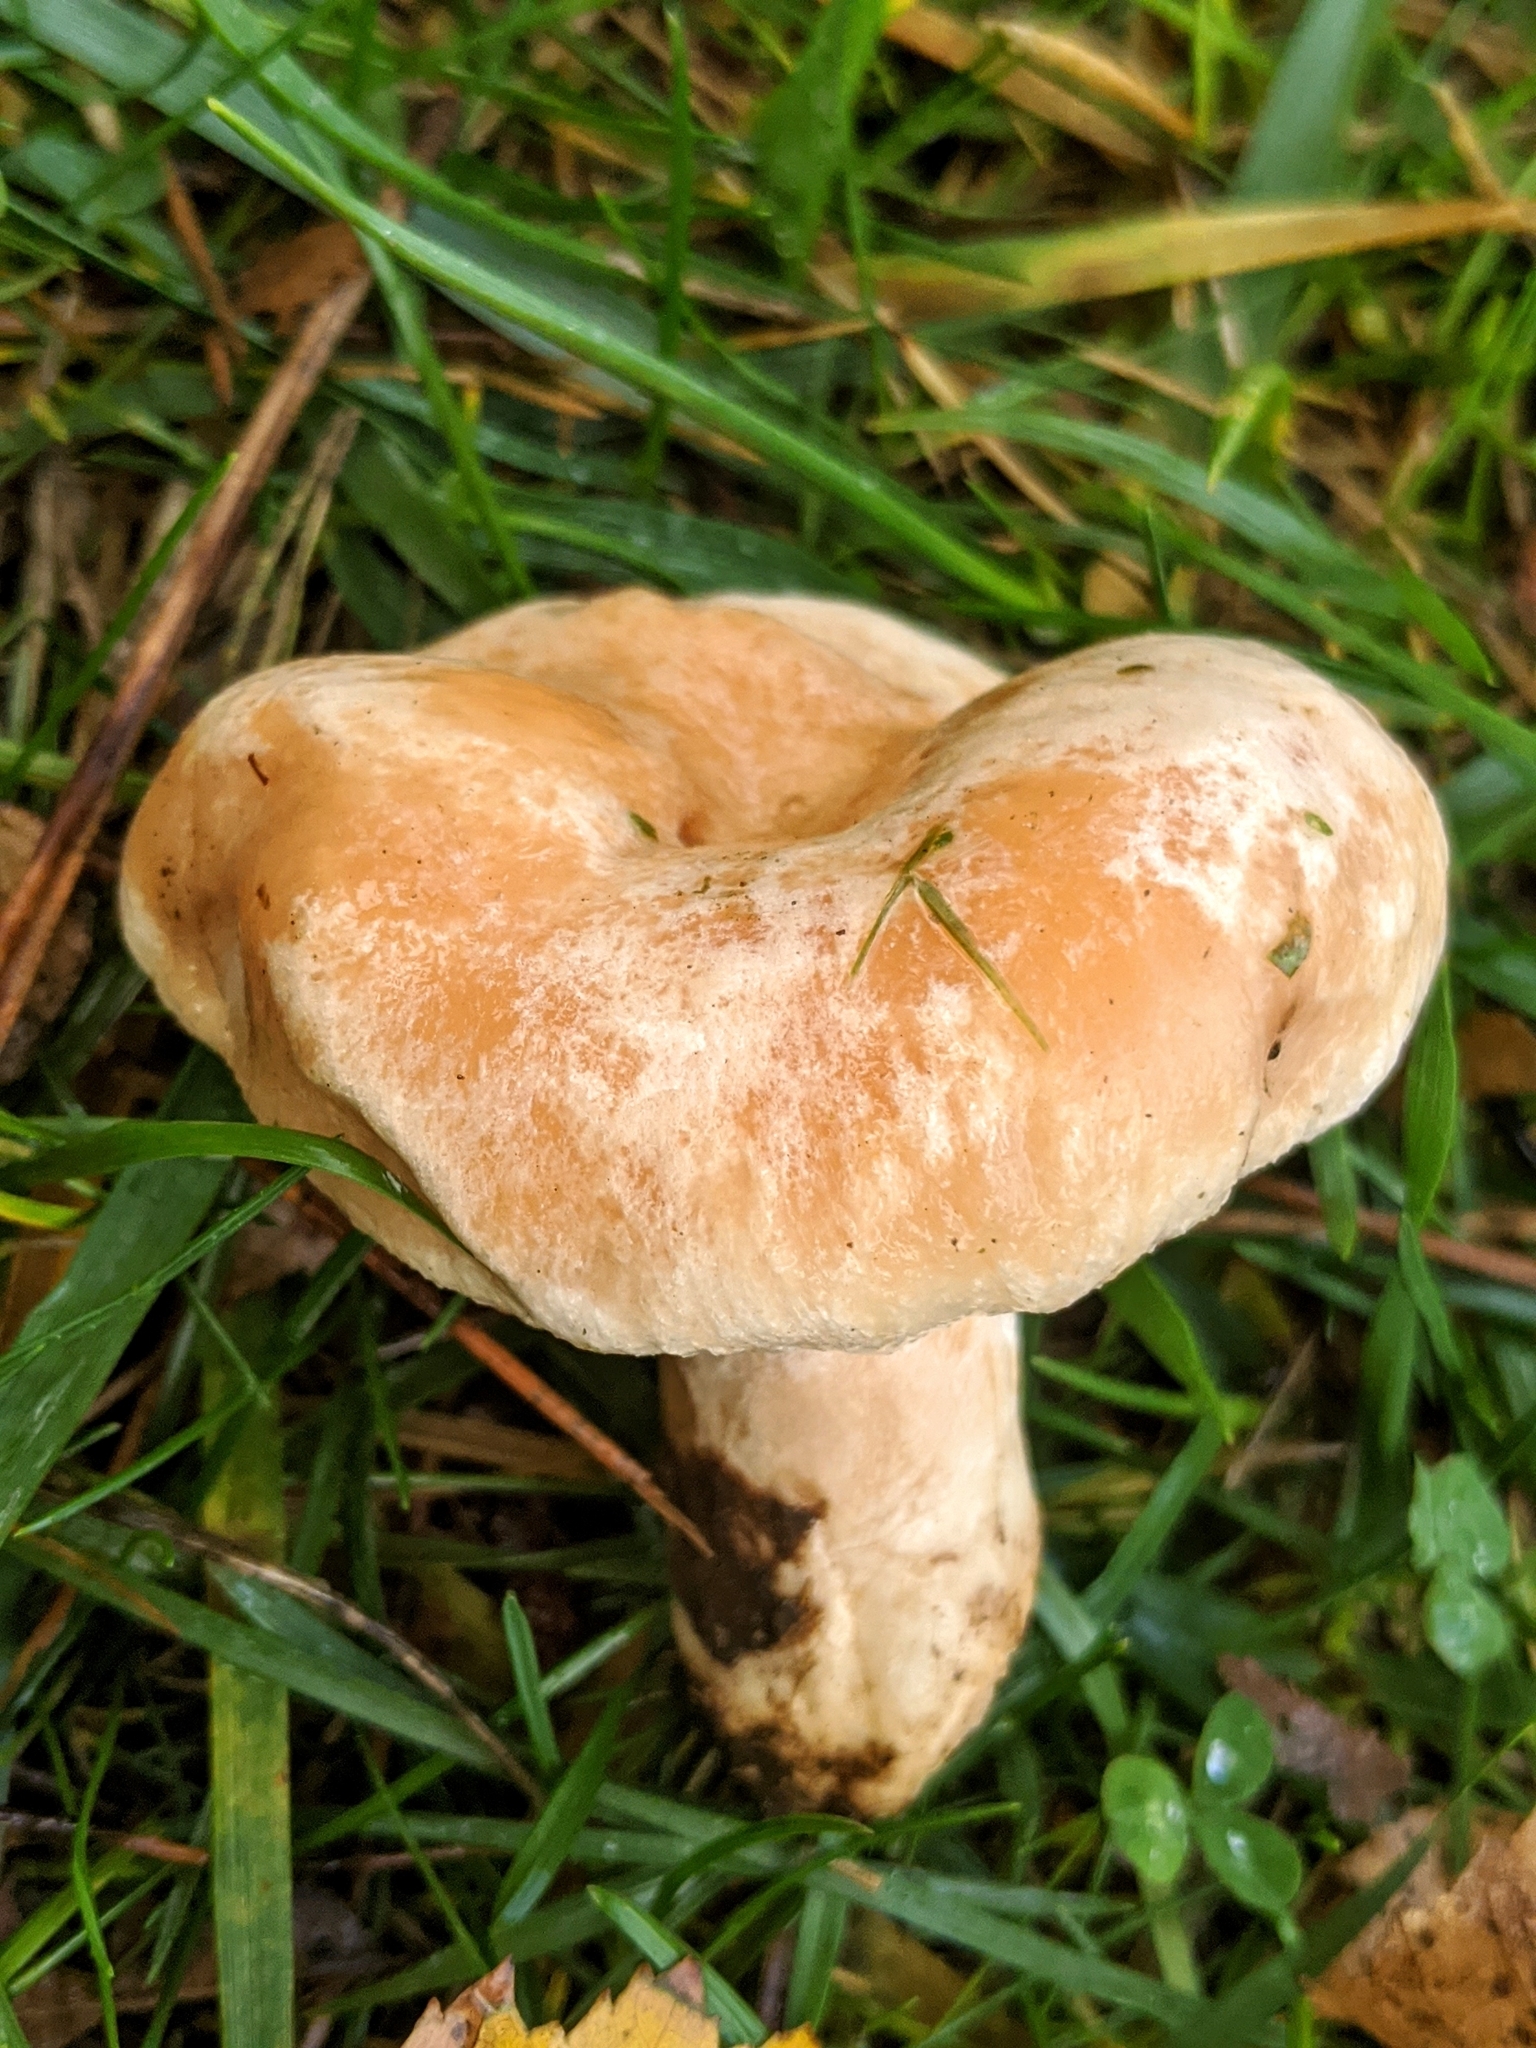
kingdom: Fungi
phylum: Basidiomycota
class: Agaricomycetes
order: Russulales
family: Russulaceae
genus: Lactarius
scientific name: Lactarius pubescens
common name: Bearded milkcap
